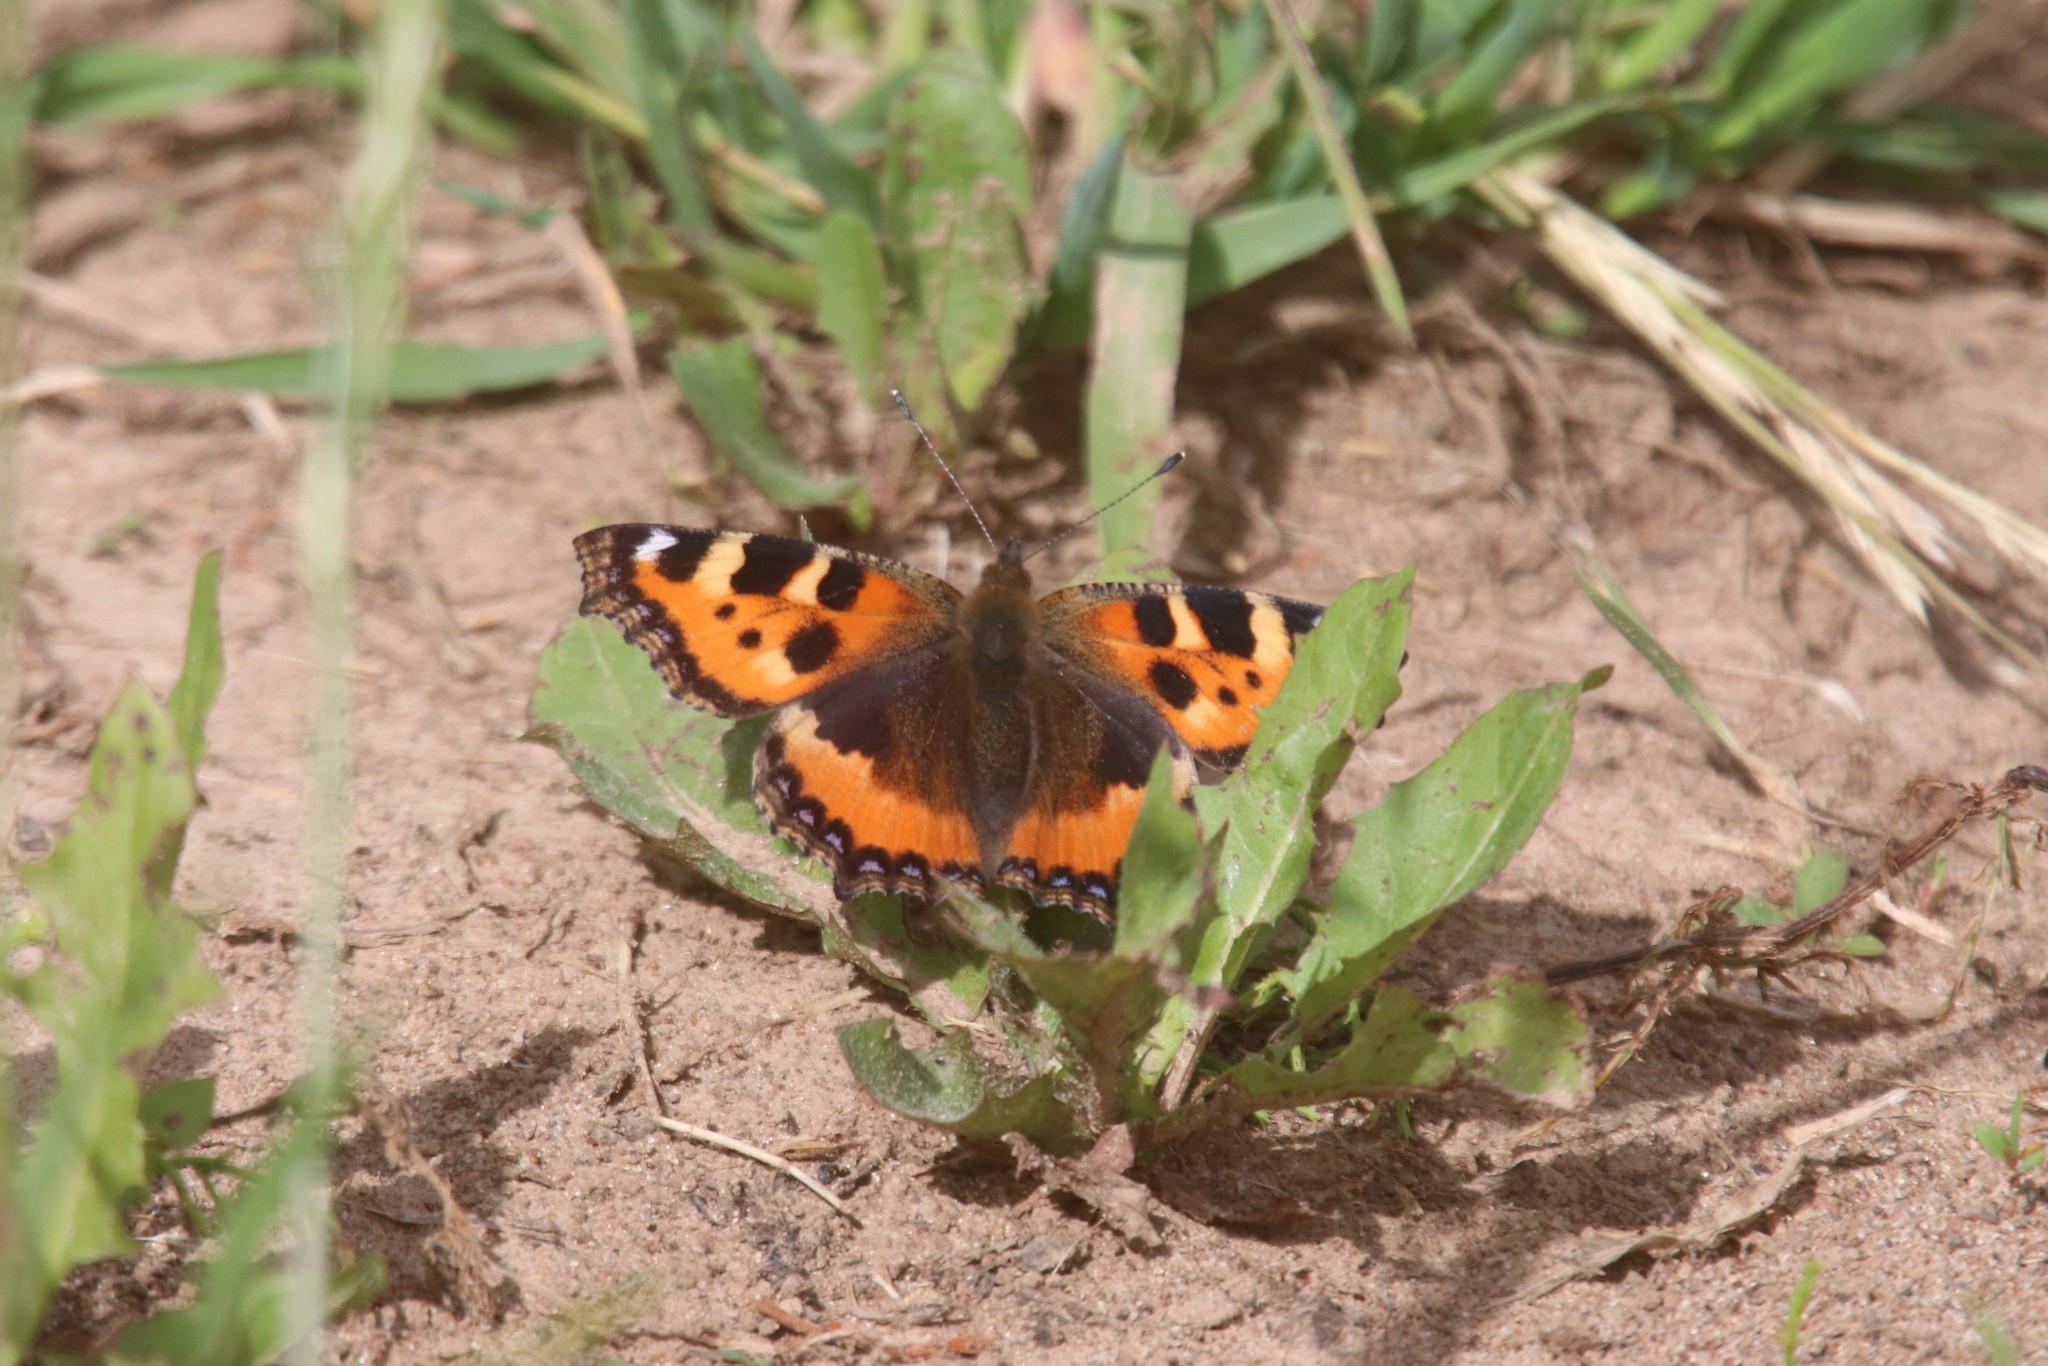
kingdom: Animalia
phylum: Arthropoda
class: Insecta
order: Lepidoptera
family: Nymphalidae
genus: Aglais
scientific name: Aglais urticae
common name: Small tortoiseshell
